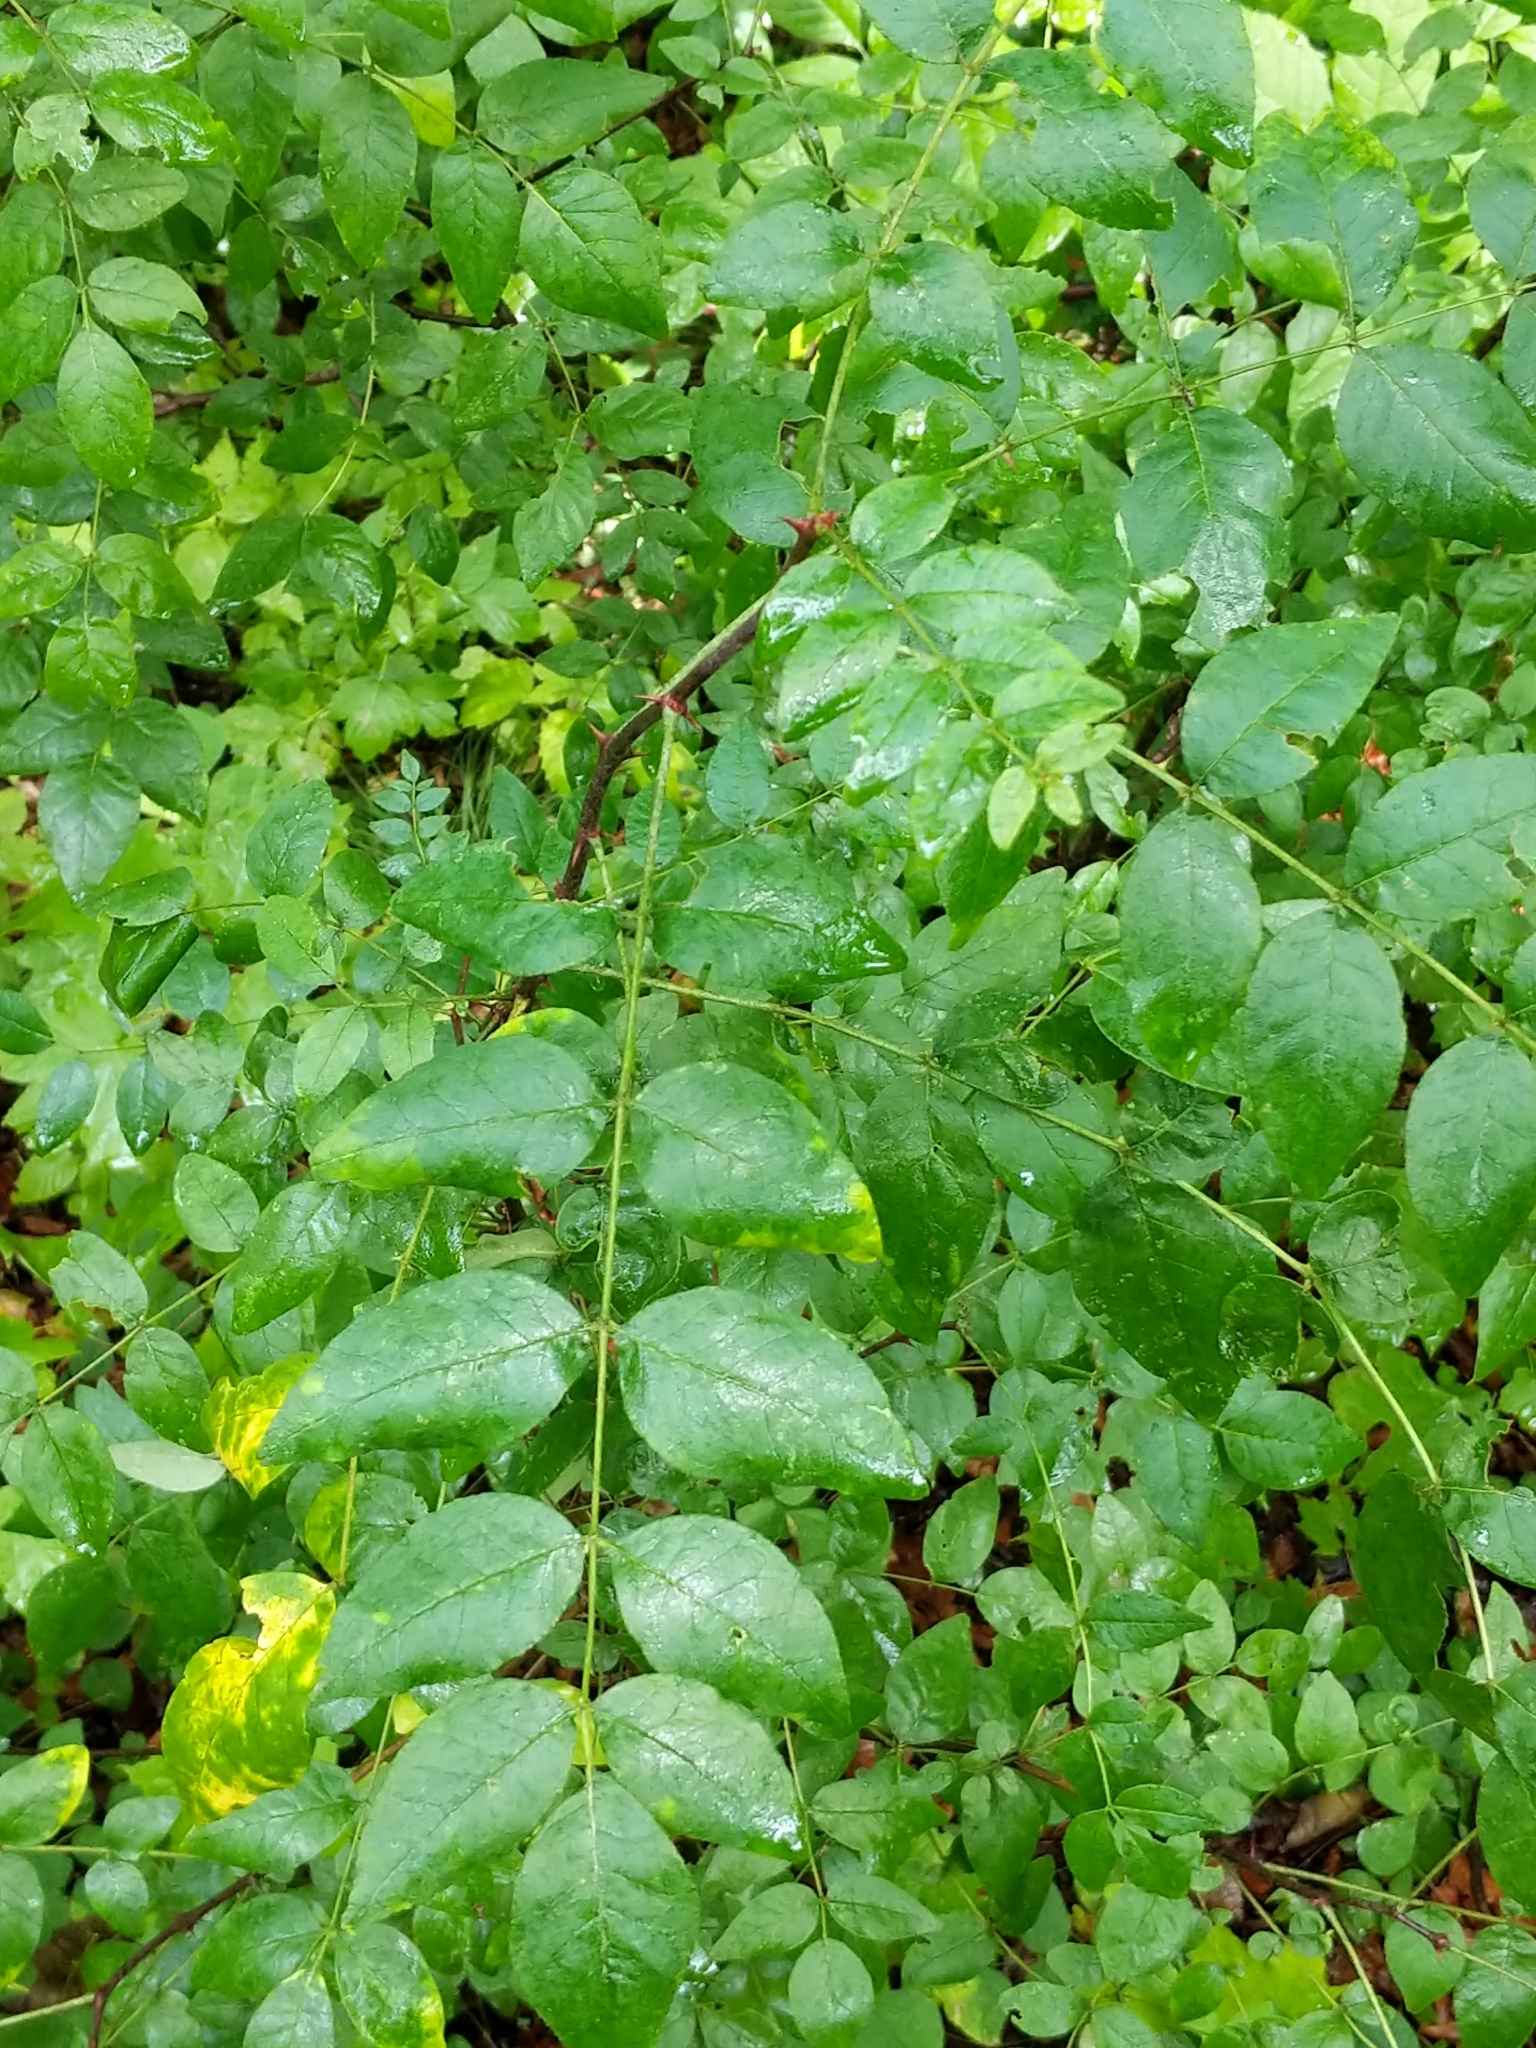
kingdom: Plantae
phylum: Tracheophyta
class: Magnoliopsida
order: Sapindales
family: Rutaceae
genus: Zanthoxylum
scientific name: Zanthoxylum americanum
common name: Northern prickly-ash
